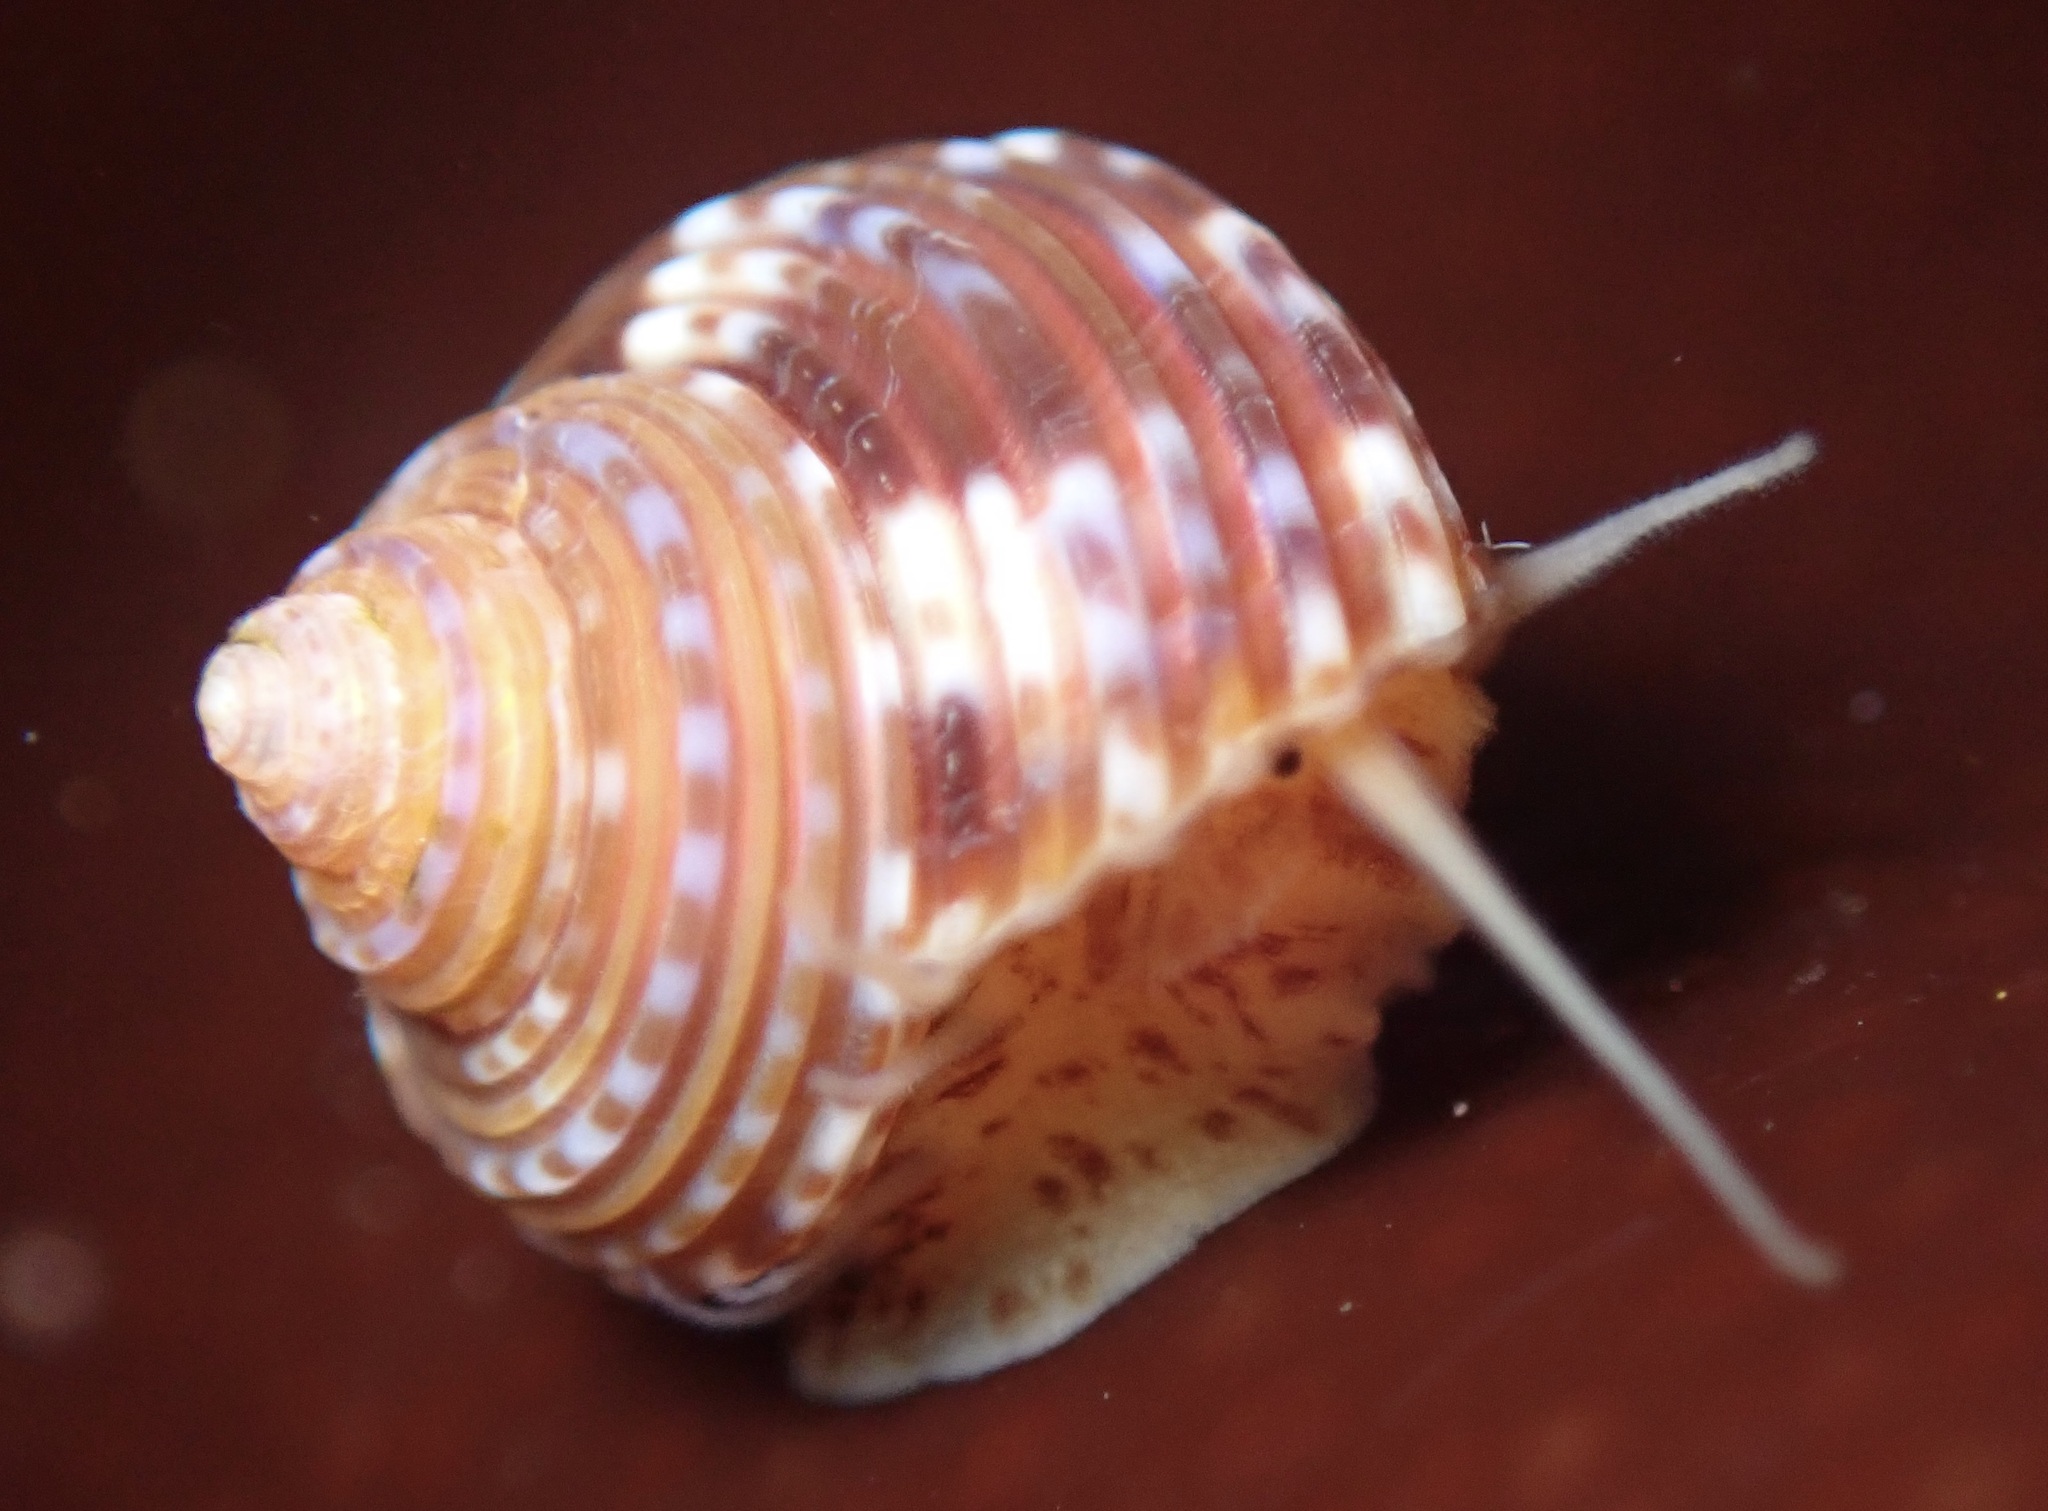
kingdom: Animalia
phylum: Mollusca
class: Gastropoda
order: Trochida
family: Calliostomatidae
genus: Calliostoma
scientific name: Calliostoma supragranosum
